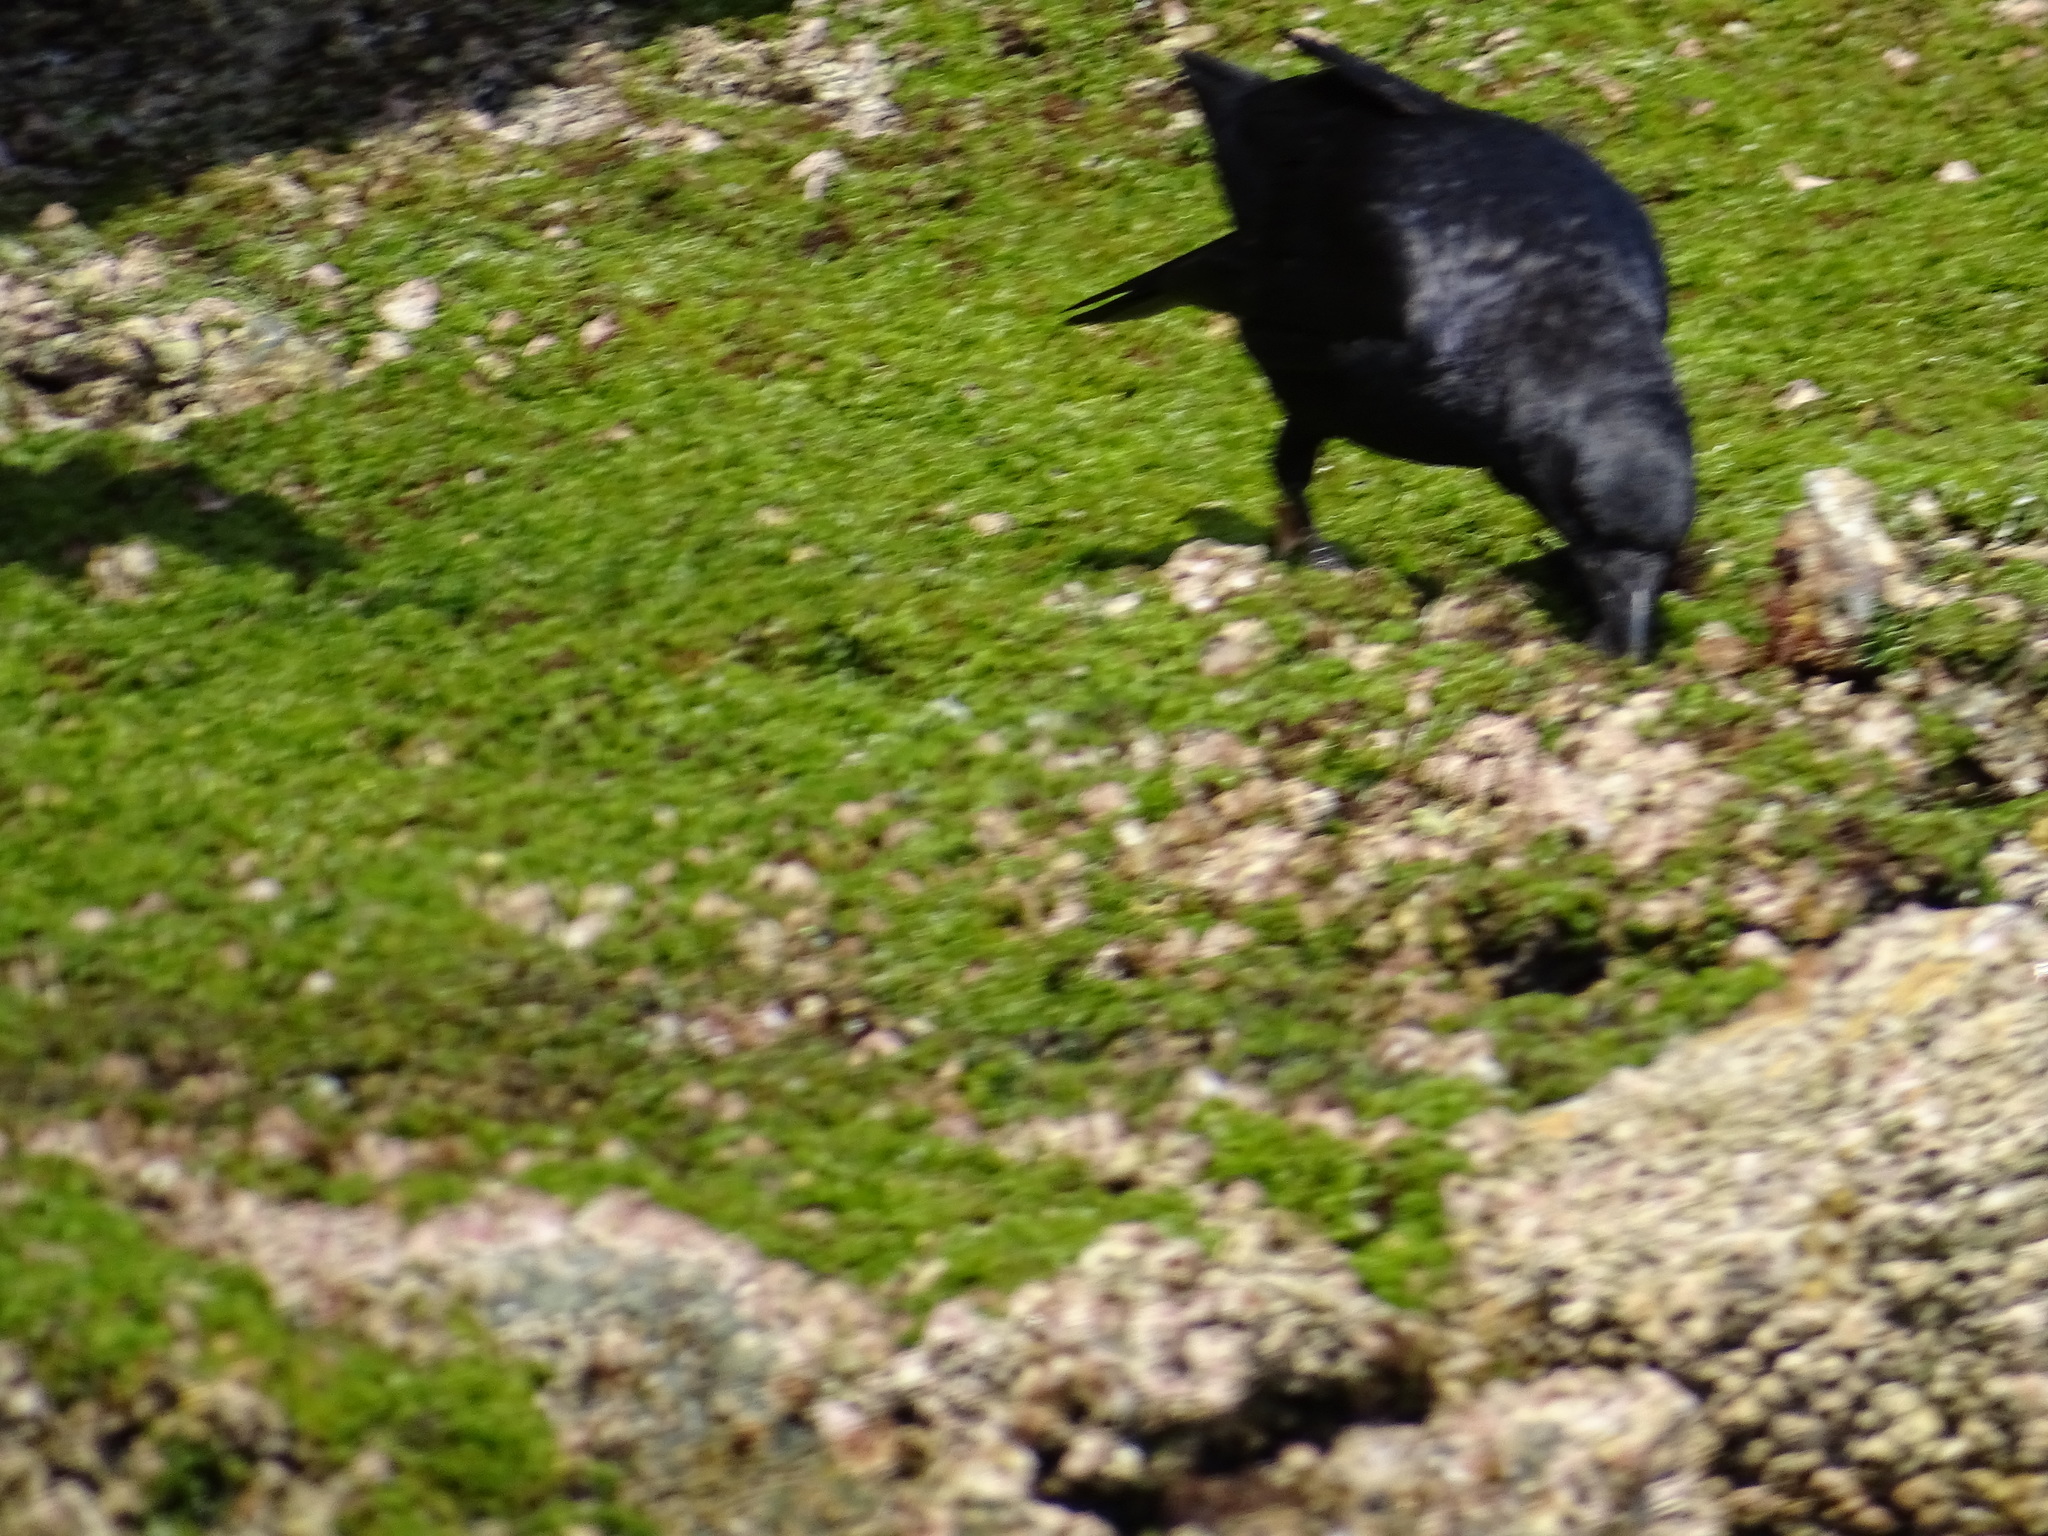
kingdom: Animalia
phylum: Chordata
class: Aves
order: Passeriformes
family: Corvidae
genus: Corvus
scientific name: Corvus
